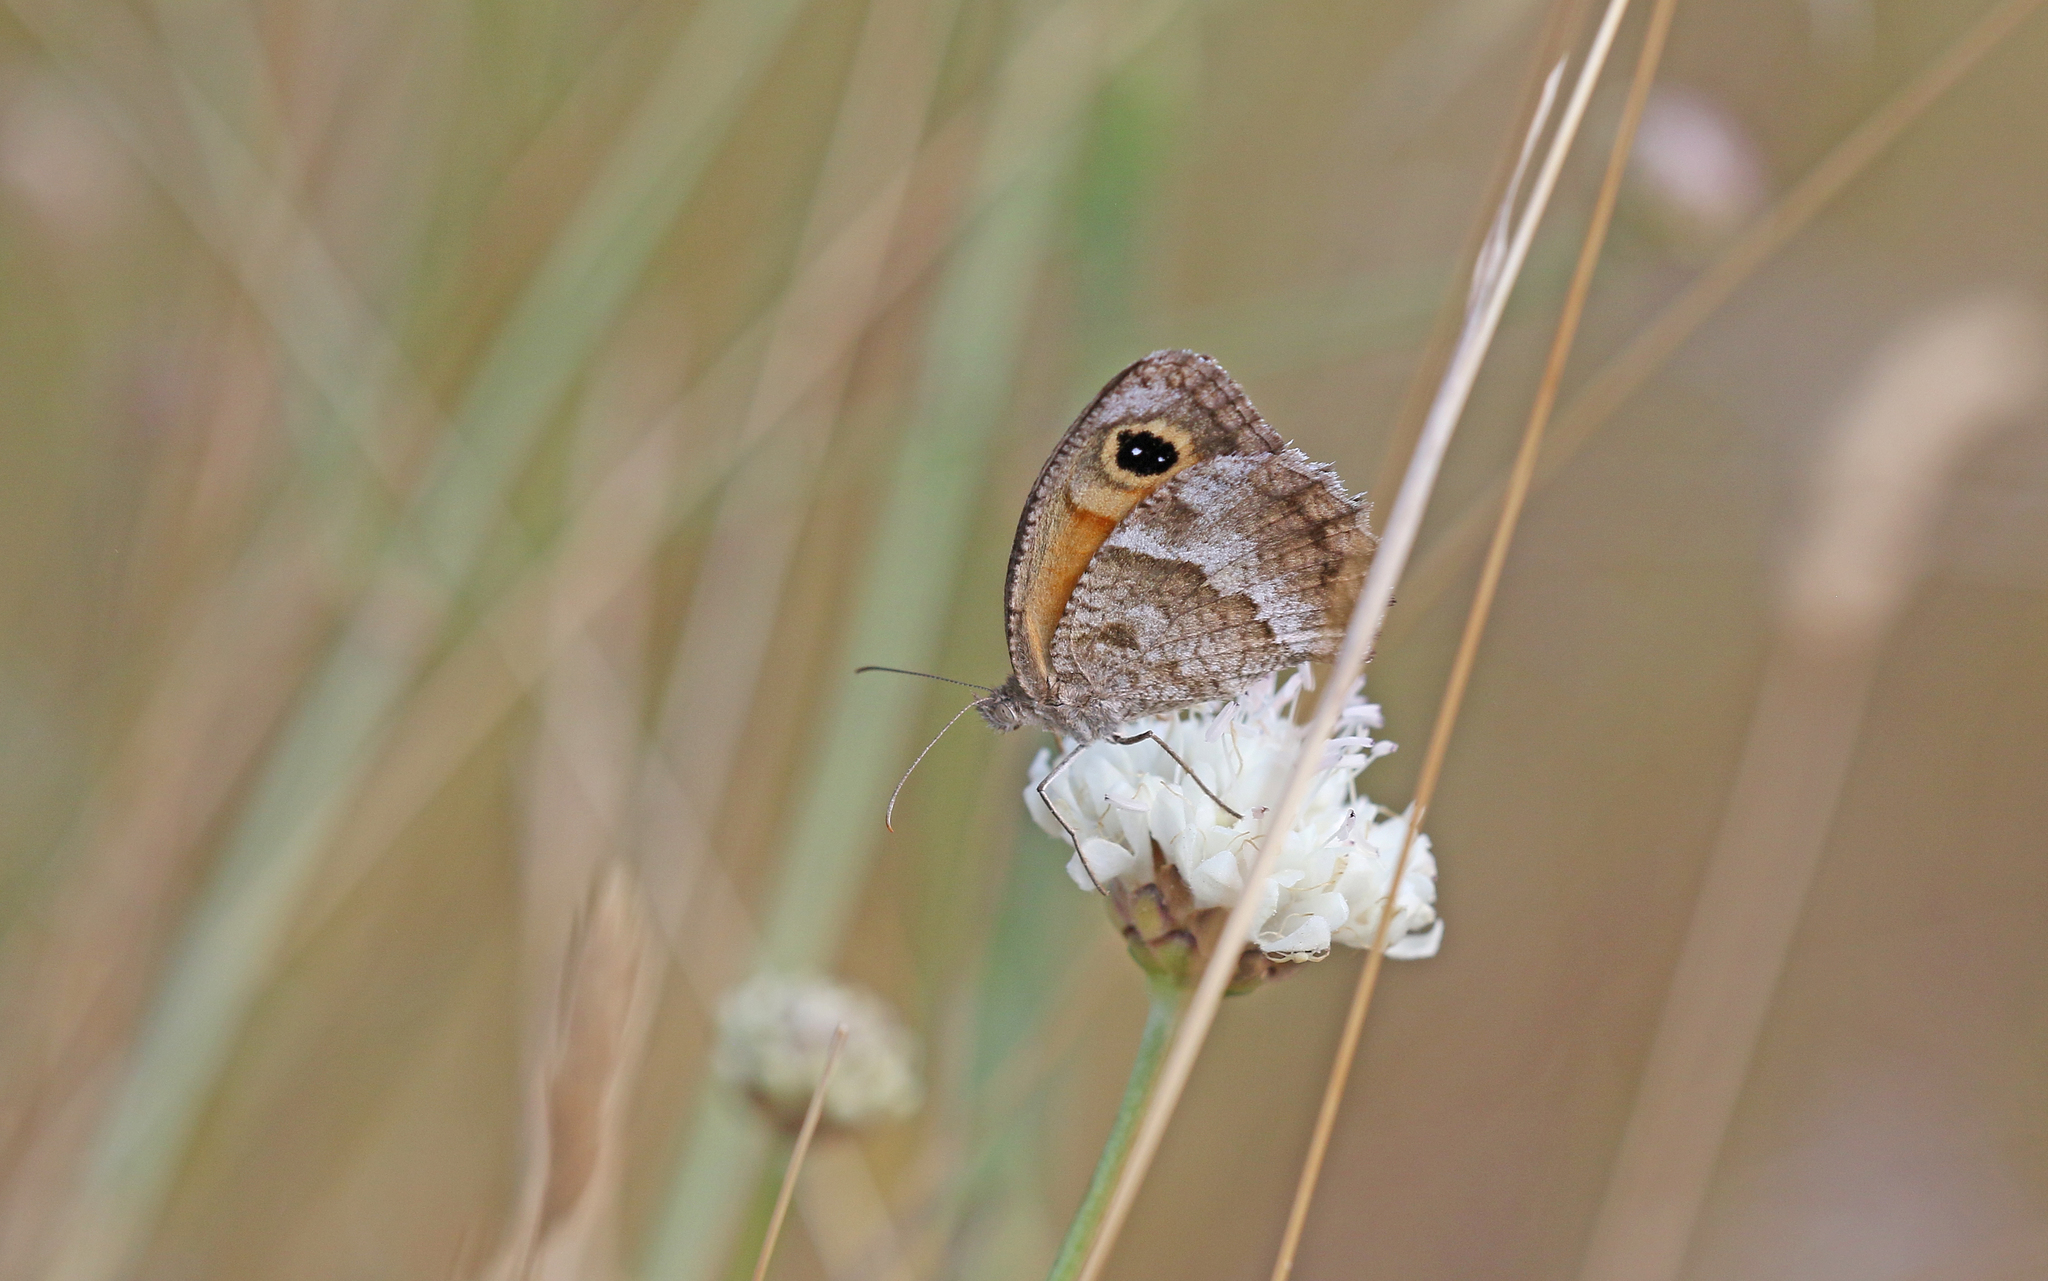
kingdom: Animalia
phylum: Arthropoda
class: Insecta
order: Lepidoptera
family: Nymphalidae
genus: Pyronia
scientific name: Pyronia cecilia
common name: Southern gatekeeper
